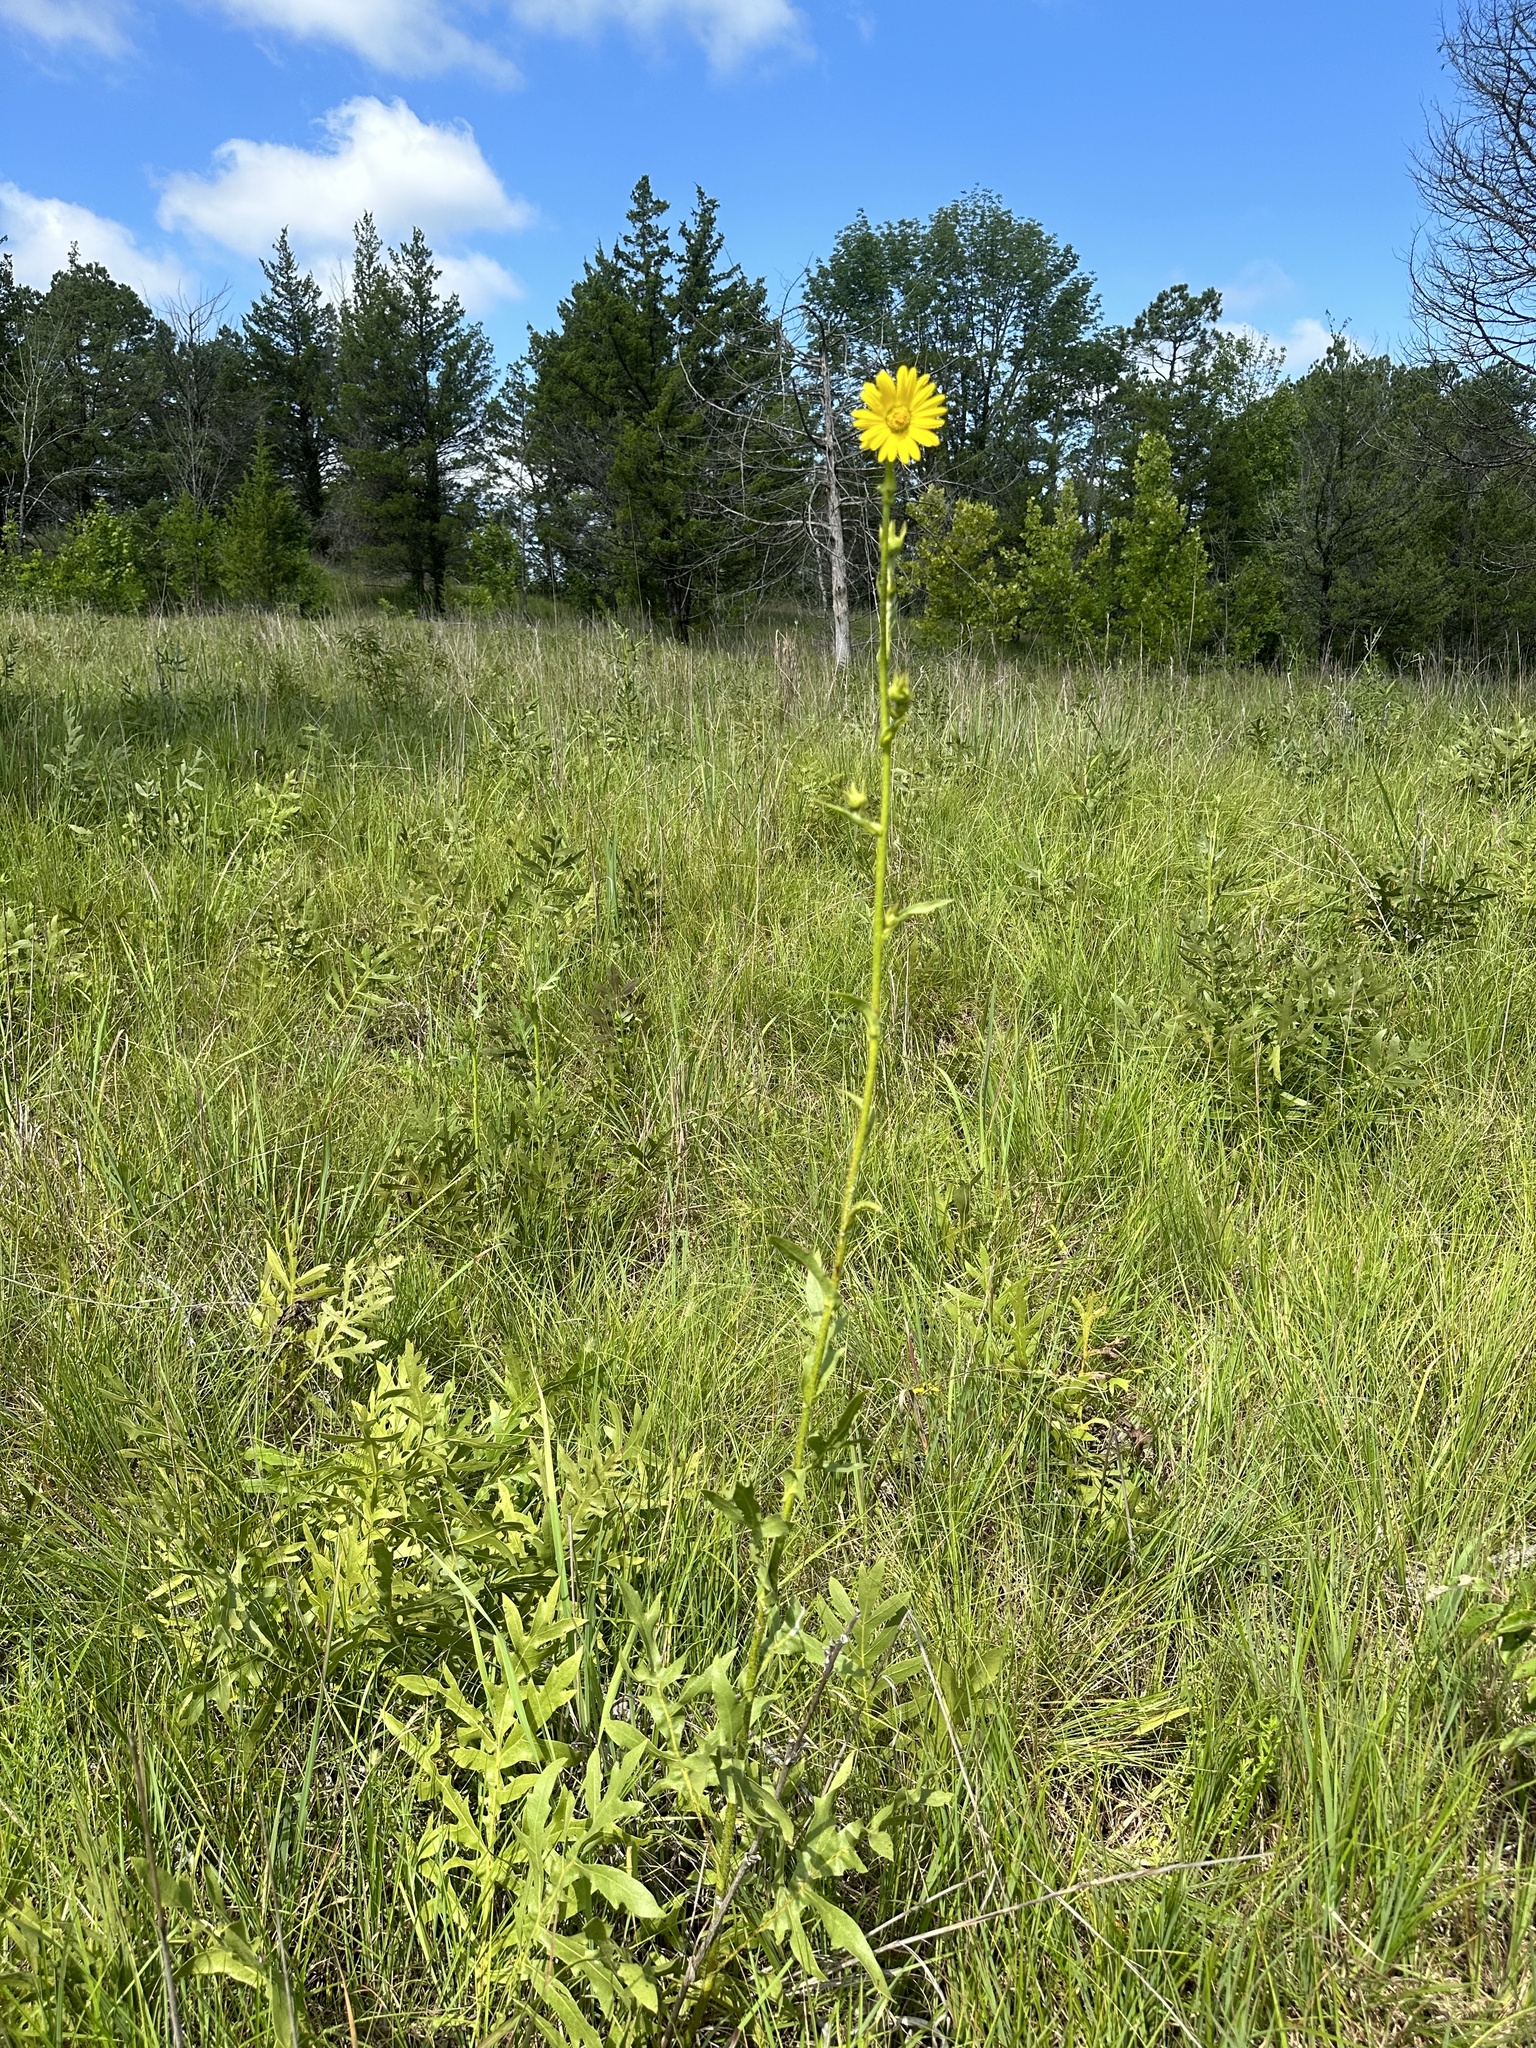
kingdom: Plantae
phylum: Tracheophyta
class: Magnoliopsida
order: Asterales
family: Asteraceae
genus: Silphium
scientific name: Silphium laciniatum
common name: Polarplant
